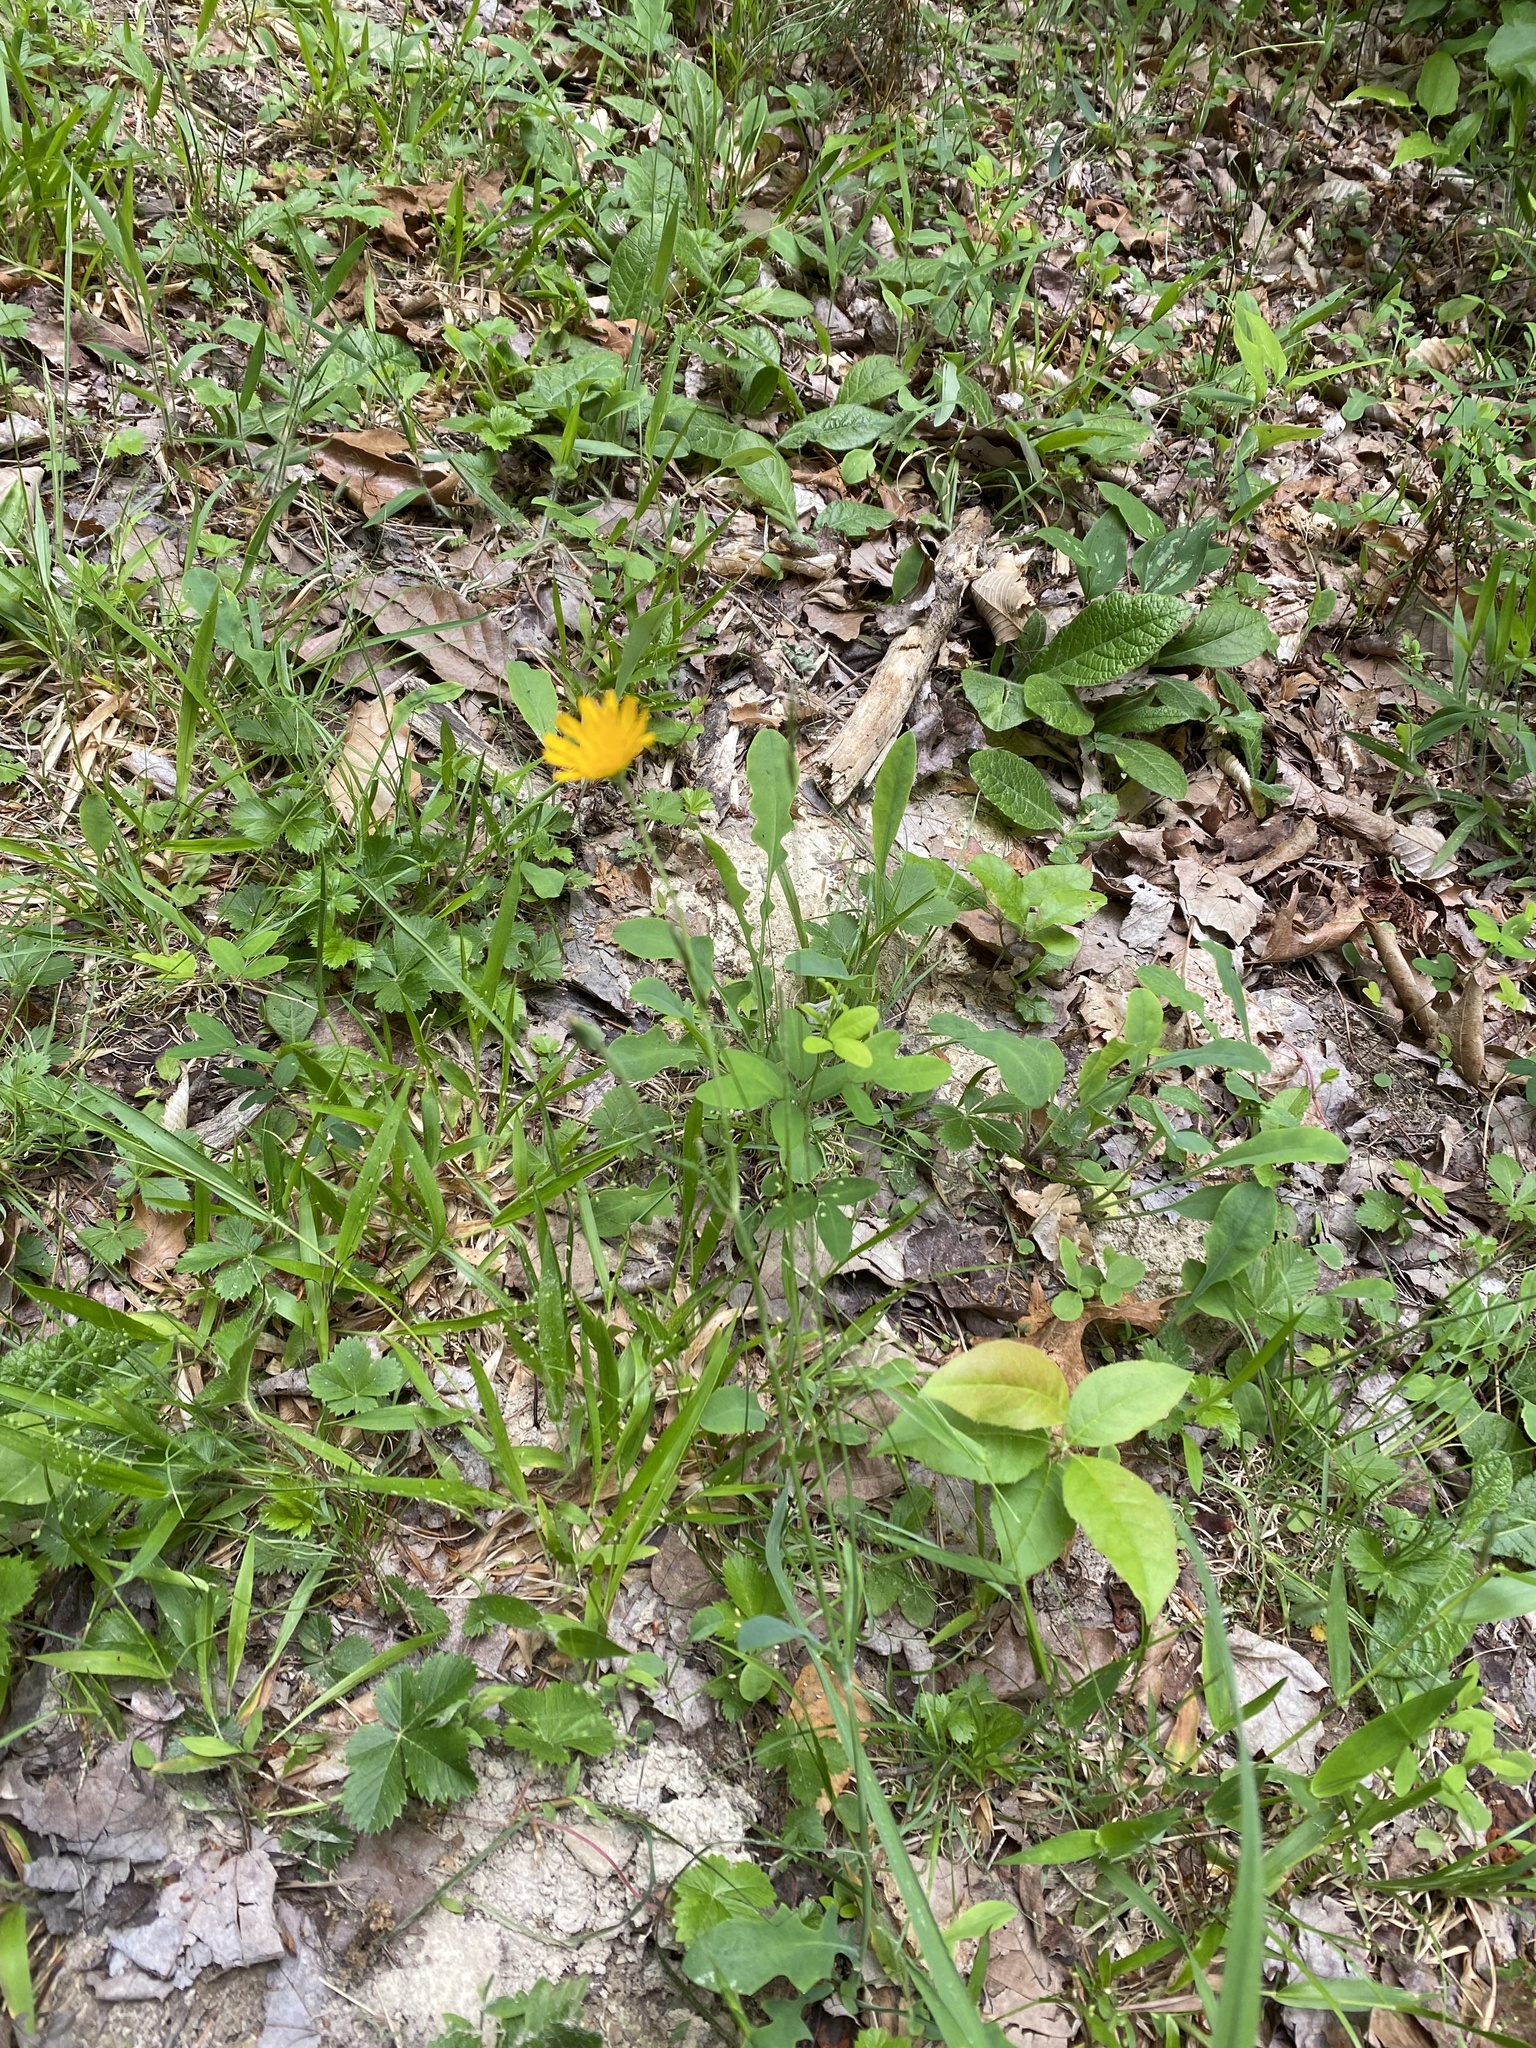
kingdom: Plantae
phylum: Tracheophyta
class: Magnoliopsida
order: Asterales
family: Asteraceae
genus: Krigia
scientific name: Krigia biflora
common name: Orange dwarf-dandelion
